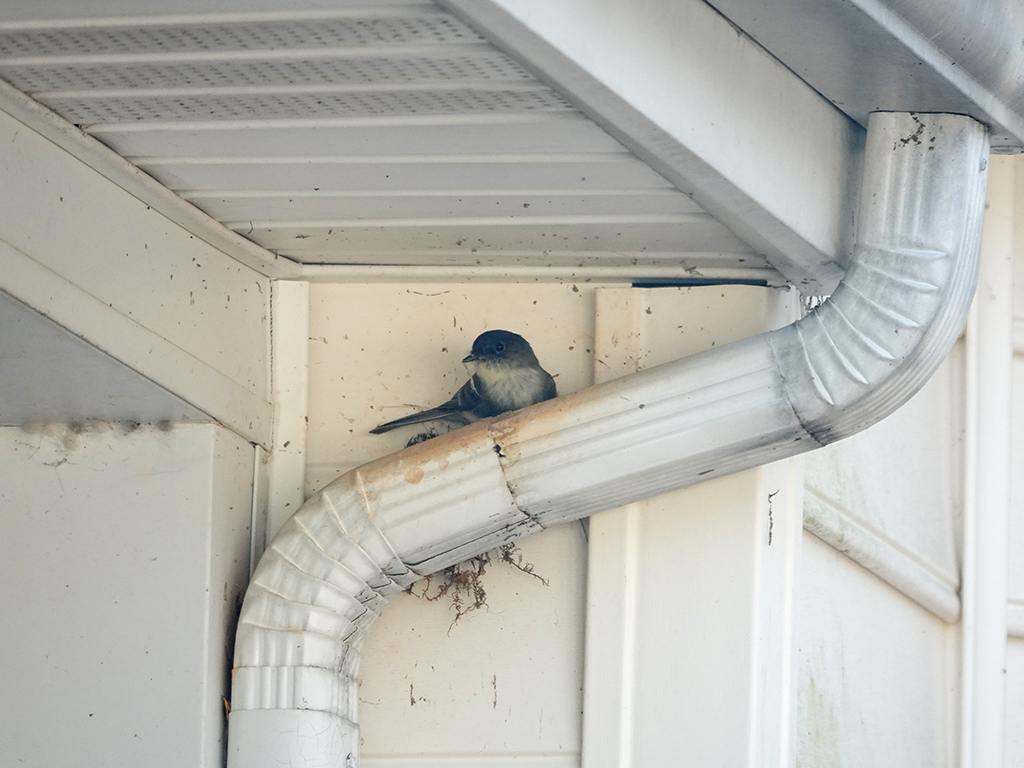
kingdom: Animalia
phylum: Chordata
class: Aves
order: Passeriformes
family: Tyrannidae
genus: Sayornis
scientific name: Sayornis phoebe
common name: Eastern phoebe
